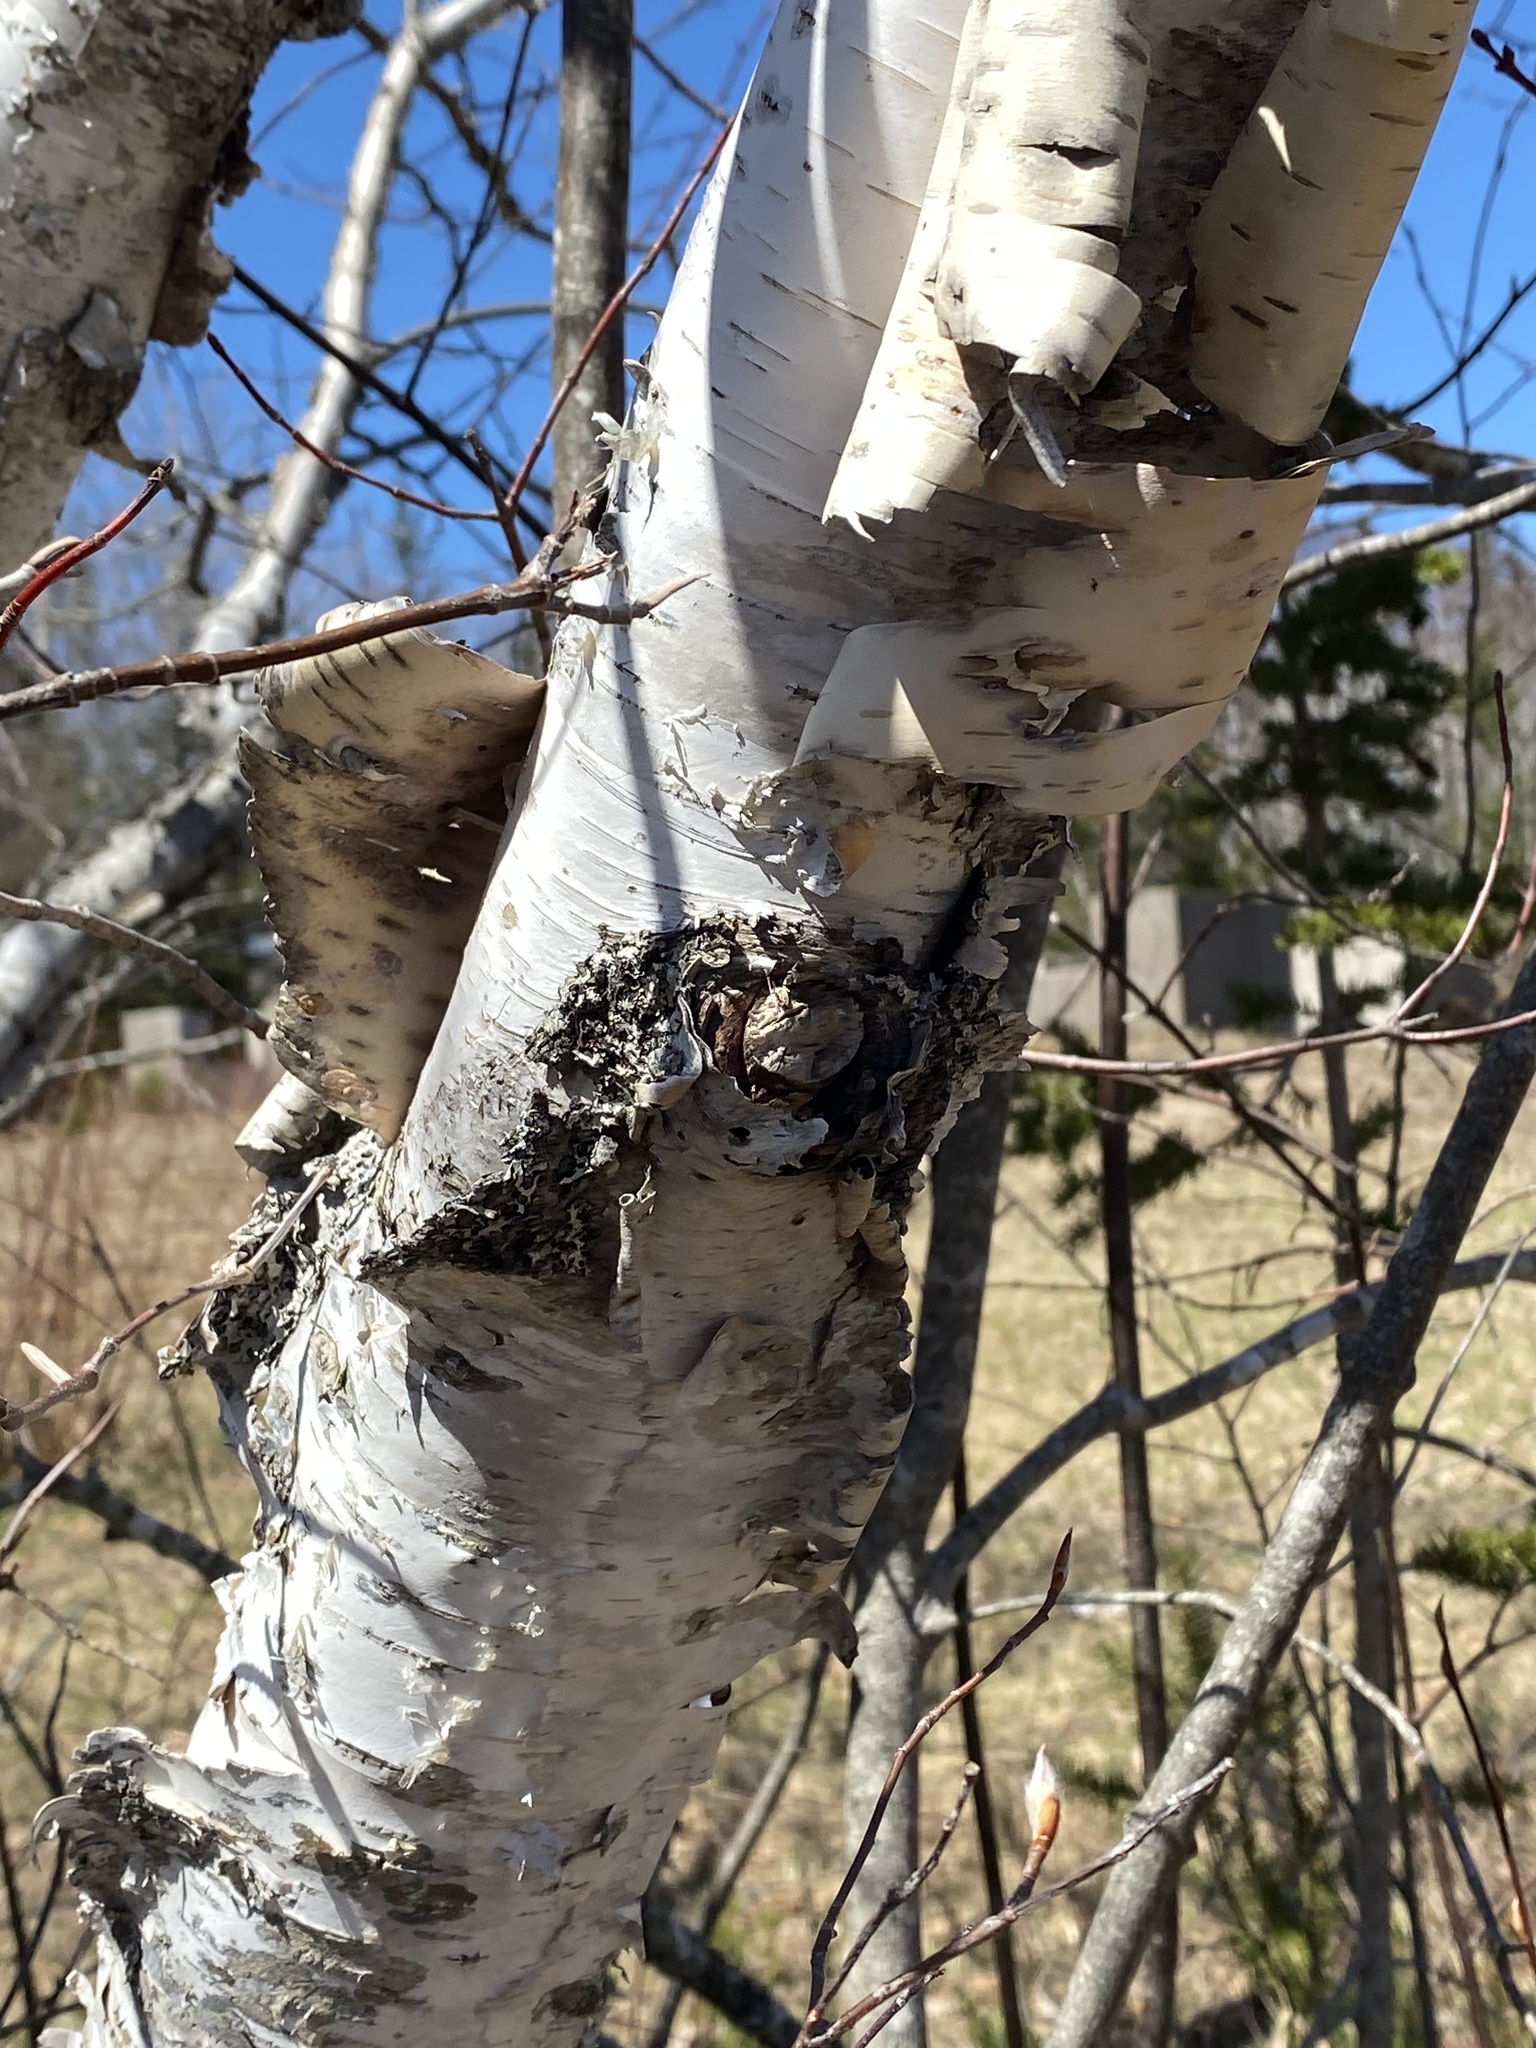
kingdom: Plantae
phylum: Tracheophyta
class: Magnoliopsida
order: Fagales
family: Betulaceae
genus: Betula
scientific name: Betula papyrifera
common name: Paper birch
